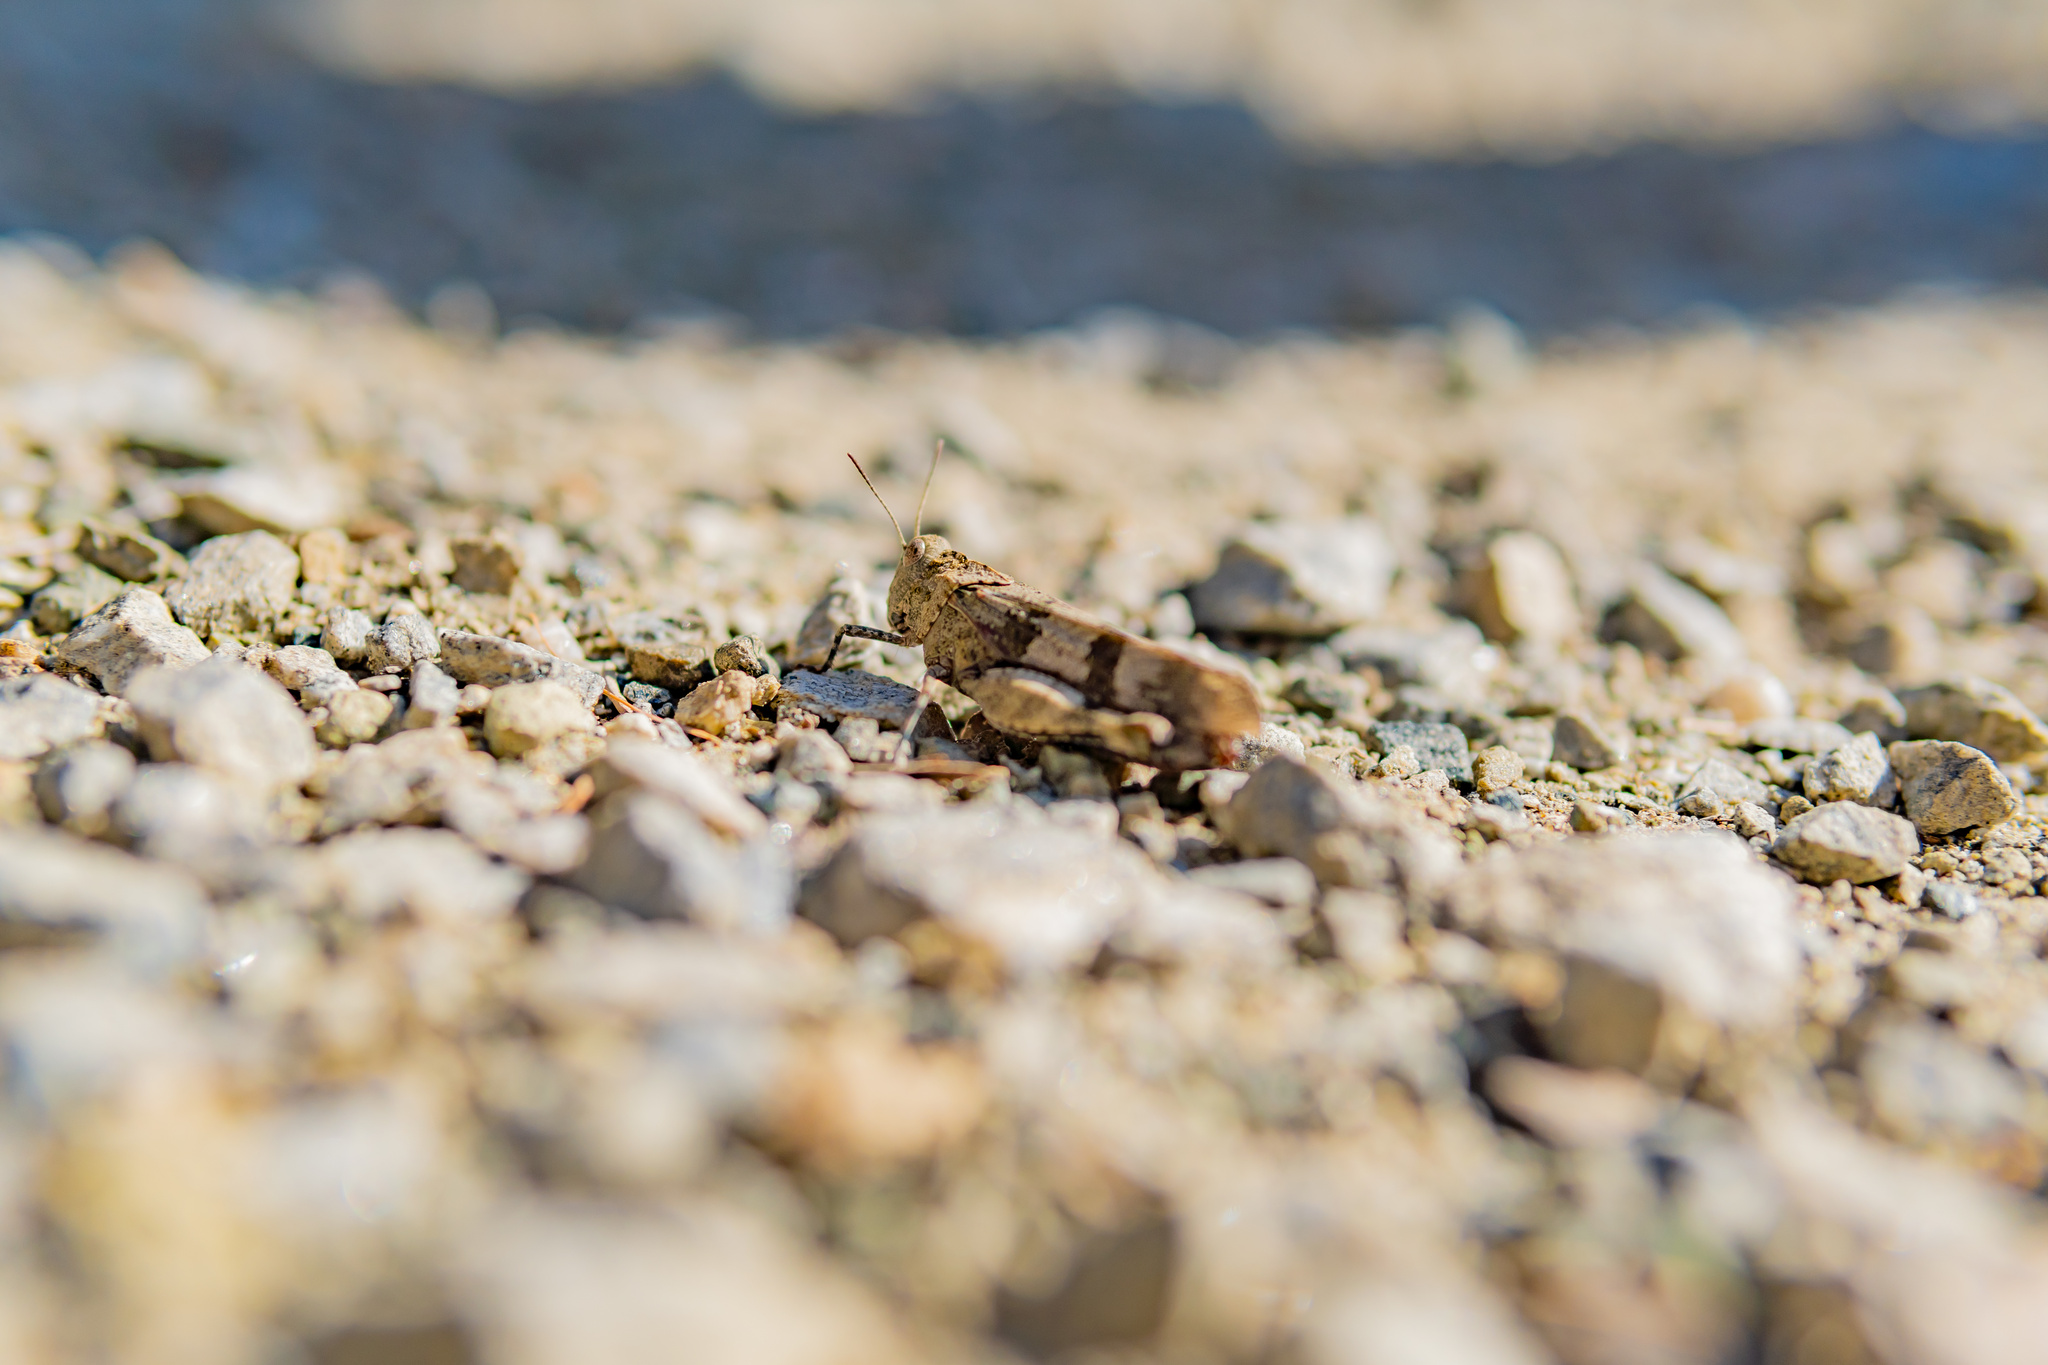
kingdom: Animalia
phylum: Arthropoda
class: Insecta
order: Orthoptera
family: Acrididae
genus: Oedipoda
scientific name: Oedipoda caerulescens
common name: Blue-winged grasshopper
